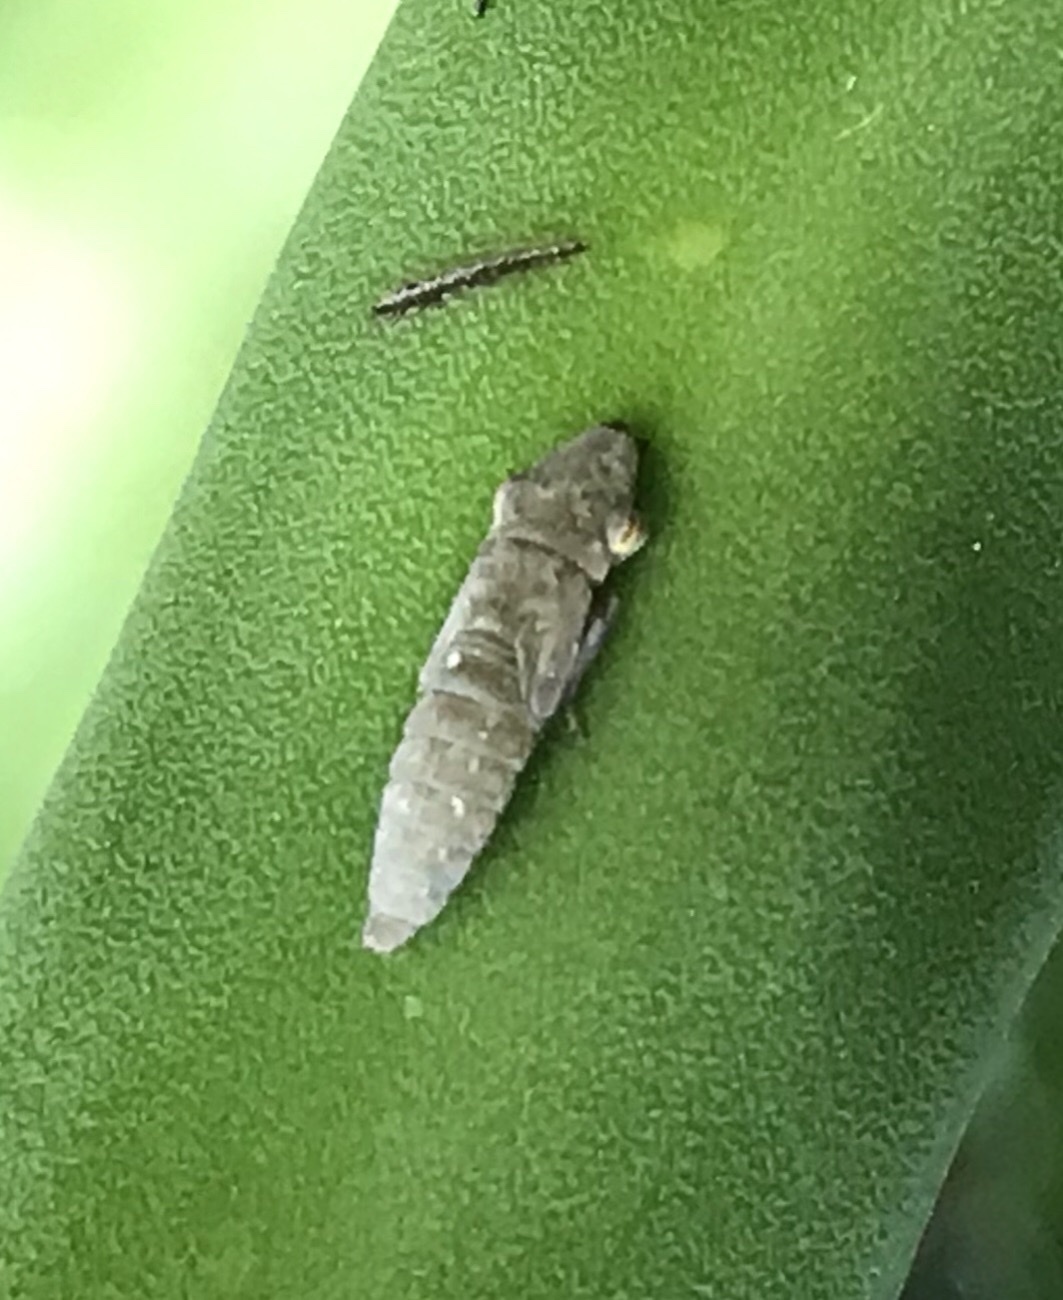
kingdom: Animalia
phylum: Arthropoda
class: Insecta
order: Hemiptera
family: Cicadellidae
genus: Homalodisca
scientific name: Homalodisca vitripennis
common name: Glassy-winged sharpshooter
